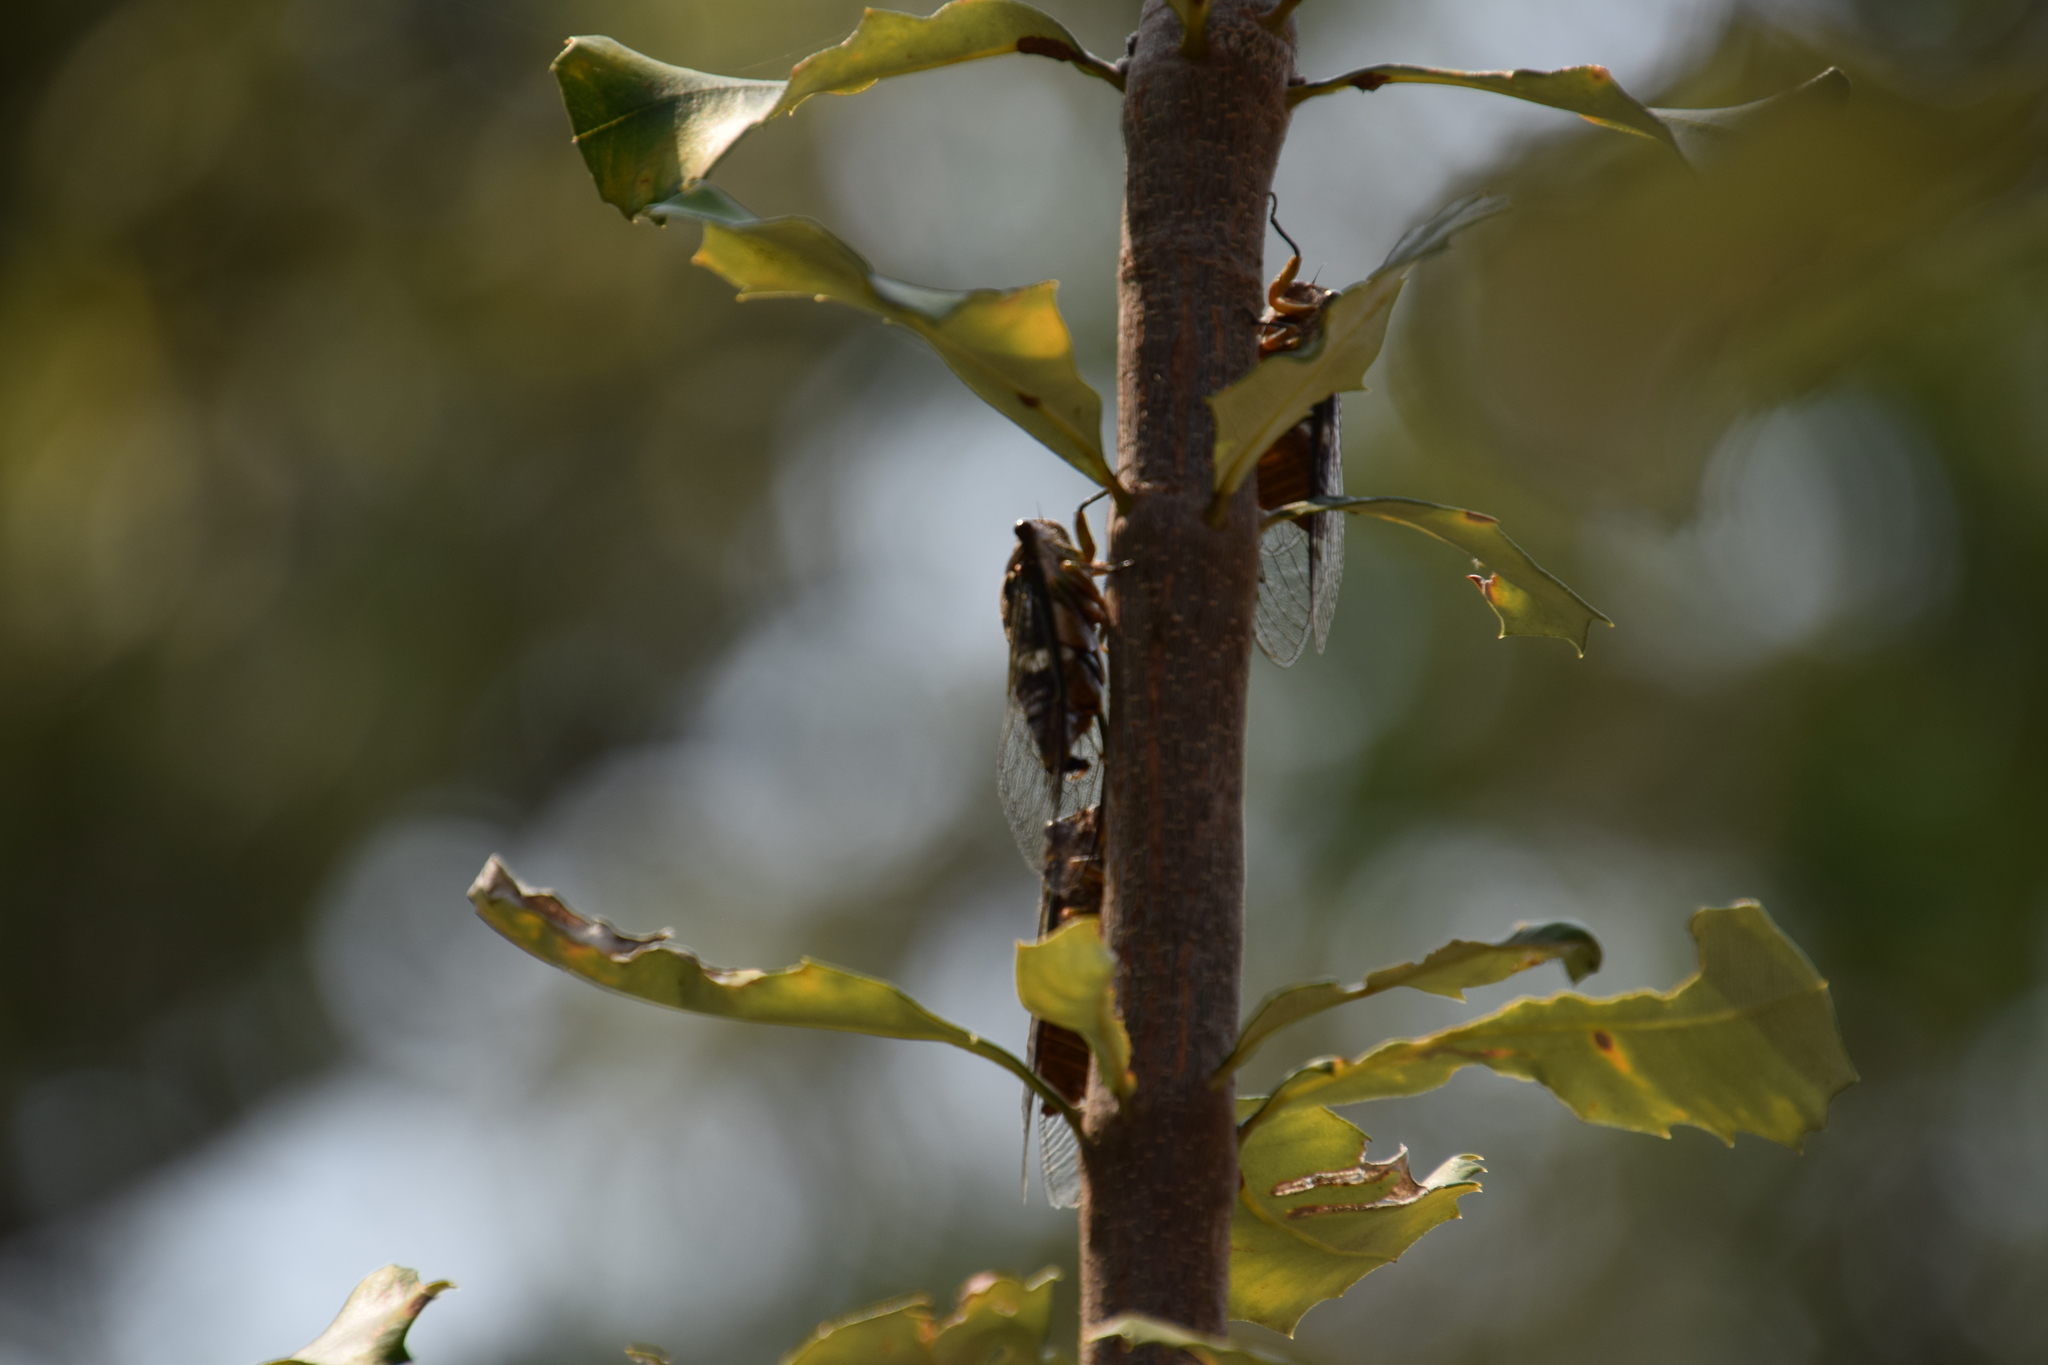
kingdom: Animalia
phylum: Arthropoda
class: Insecta
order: Hemiptera
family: Cicadidae
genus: Psaltoda
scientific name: Psaltoda plaga
